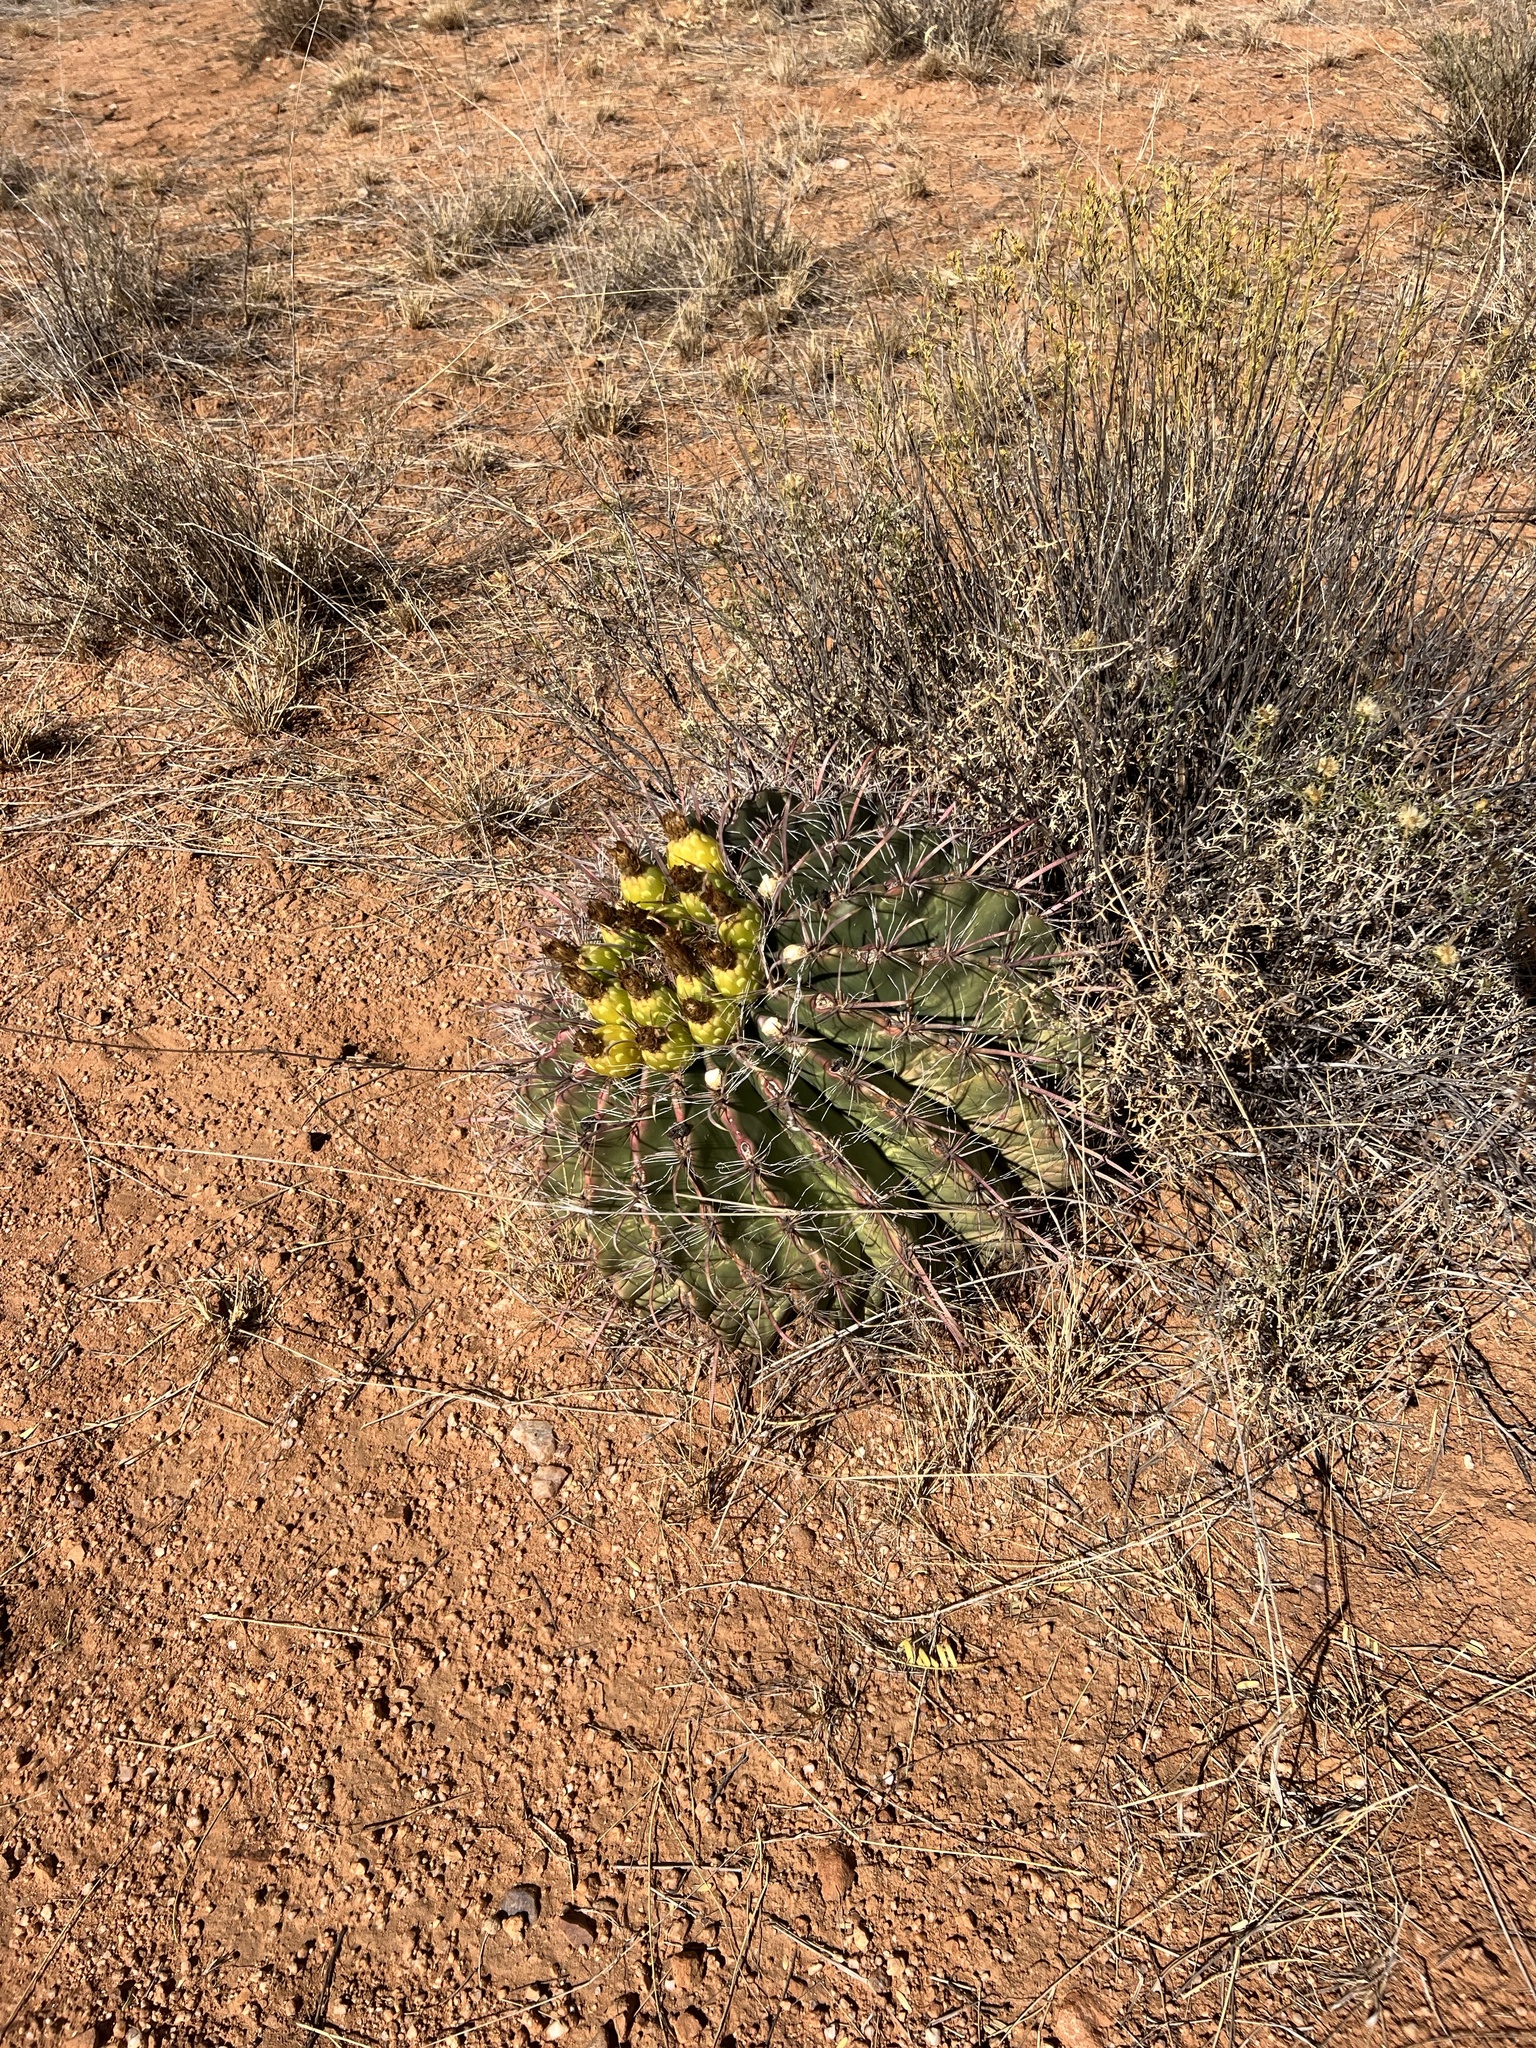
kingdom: Plantae
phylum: Tracheophyta
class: Magnoliopsida
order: Caryophyllales
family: Cactaceae
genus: Ferocactus
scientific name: Ferocactus wislizeni
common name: Candy barrel cactus
